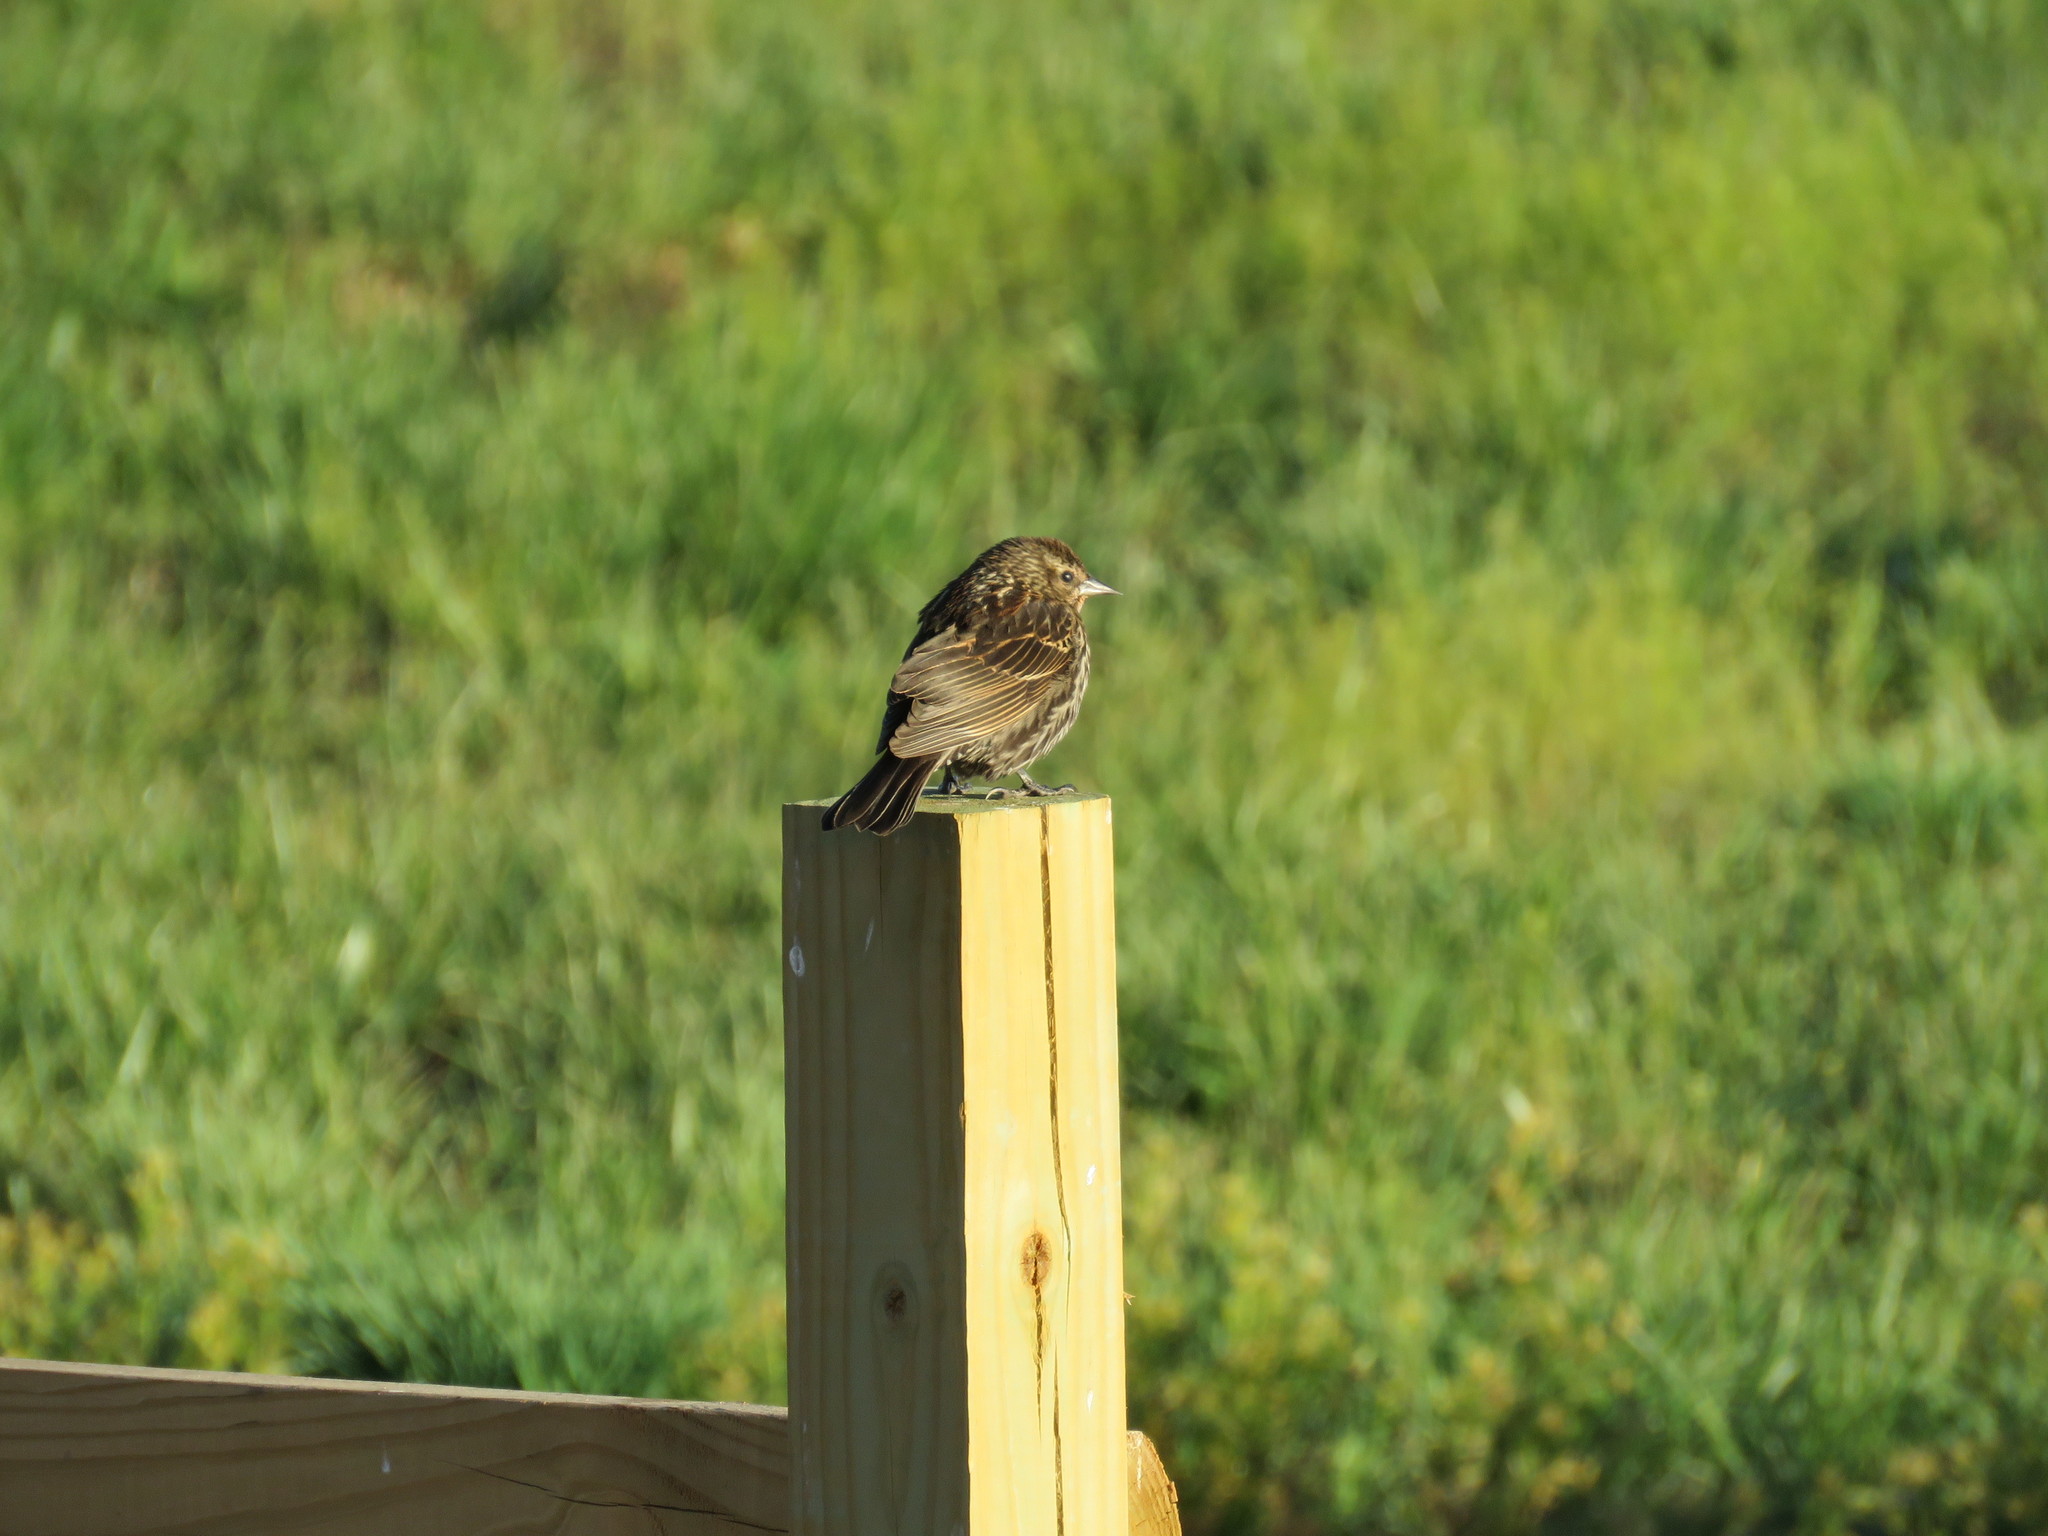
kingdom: Animalia
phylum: Chordata
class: Aves
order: Passeriformes
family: Icteridae
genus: Agelaius
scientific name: Agelaius phoeniceus
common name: Red-winged blackbird
